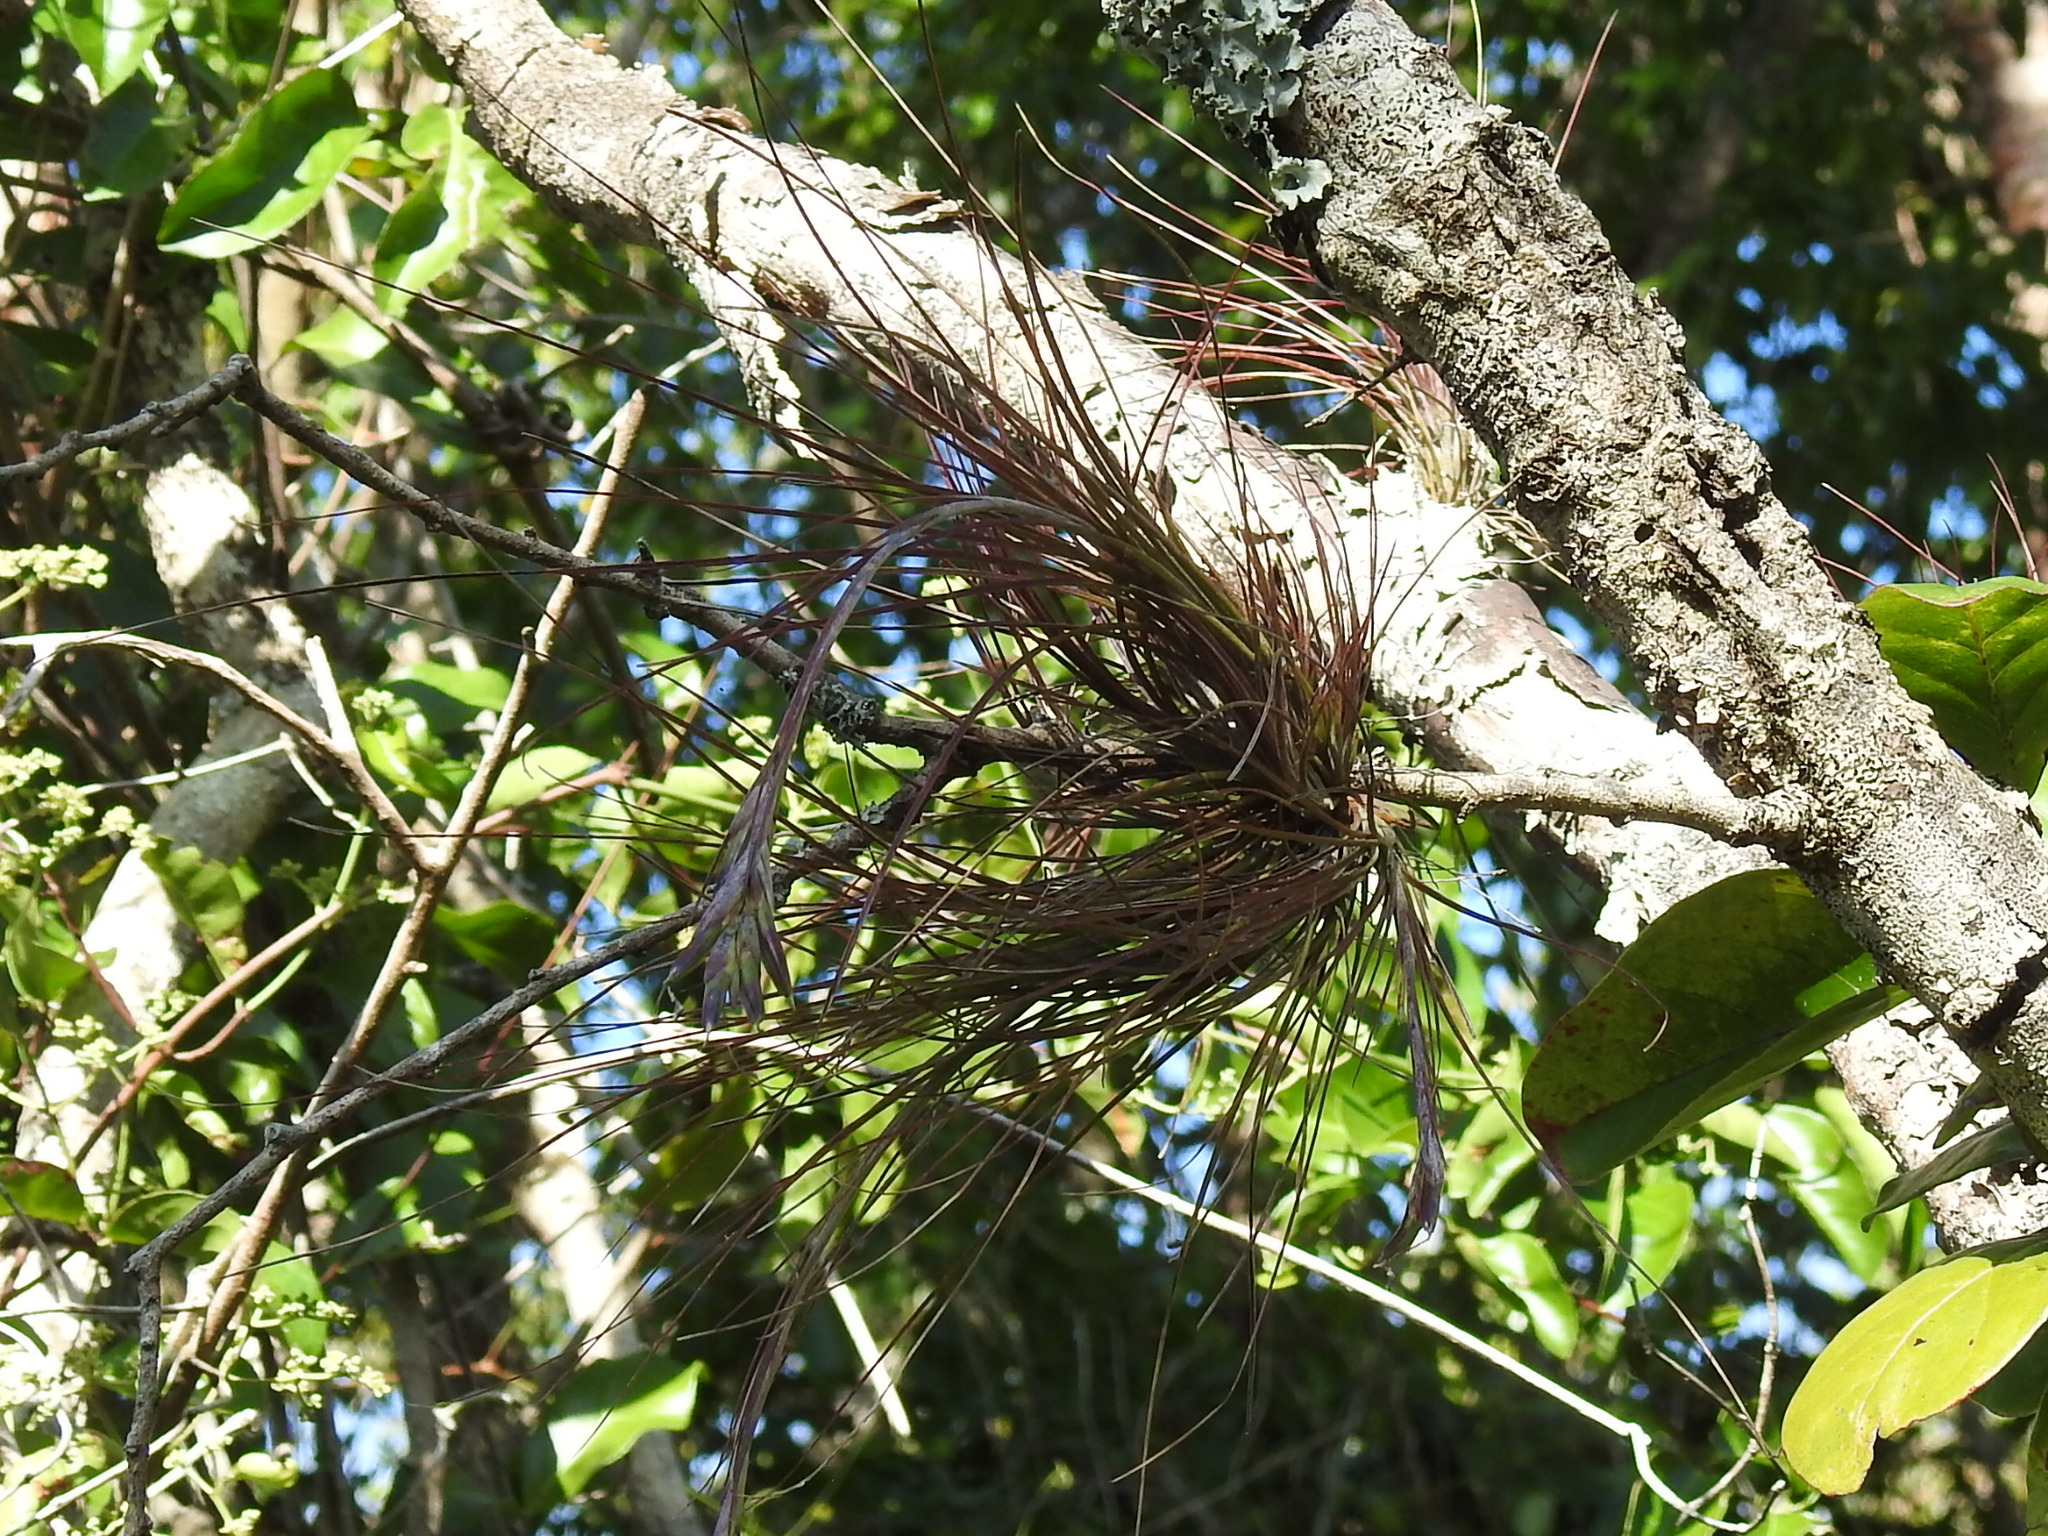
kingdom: Plantae
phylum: Tracheophyta
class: Liliopsida
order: Poales
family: Bromeliaceae
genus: Tillandsia
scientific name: Tillandsia setacea
